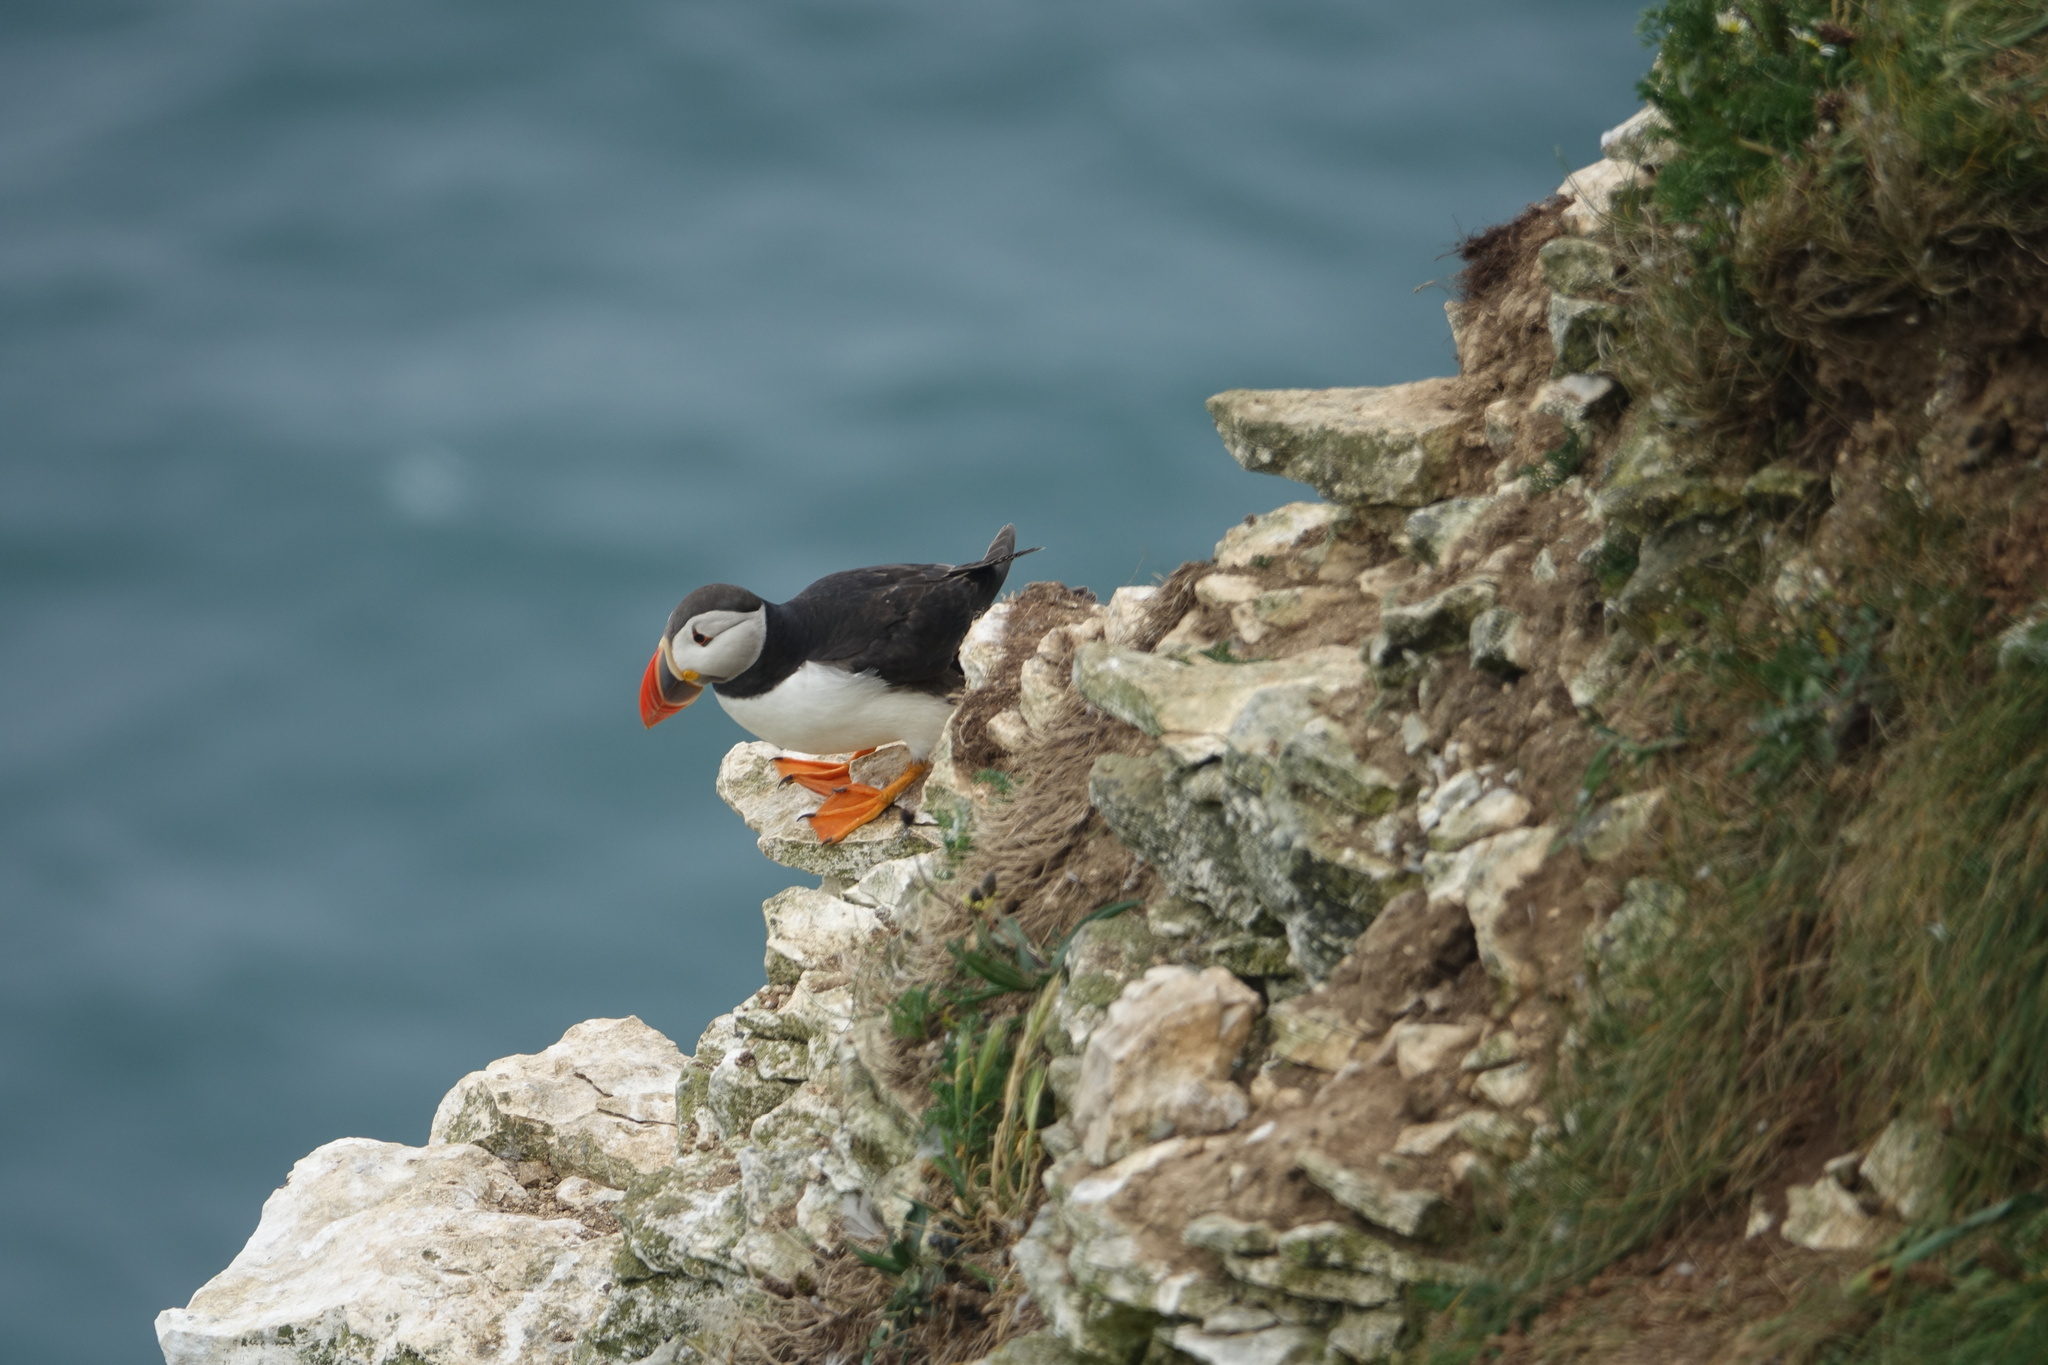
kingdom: Animalia
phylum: Chordata
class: Aves
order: Charadriiformes
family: Alcidae
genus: Fratercula
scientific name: Fratercula arctica
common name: Atlantic puffin
